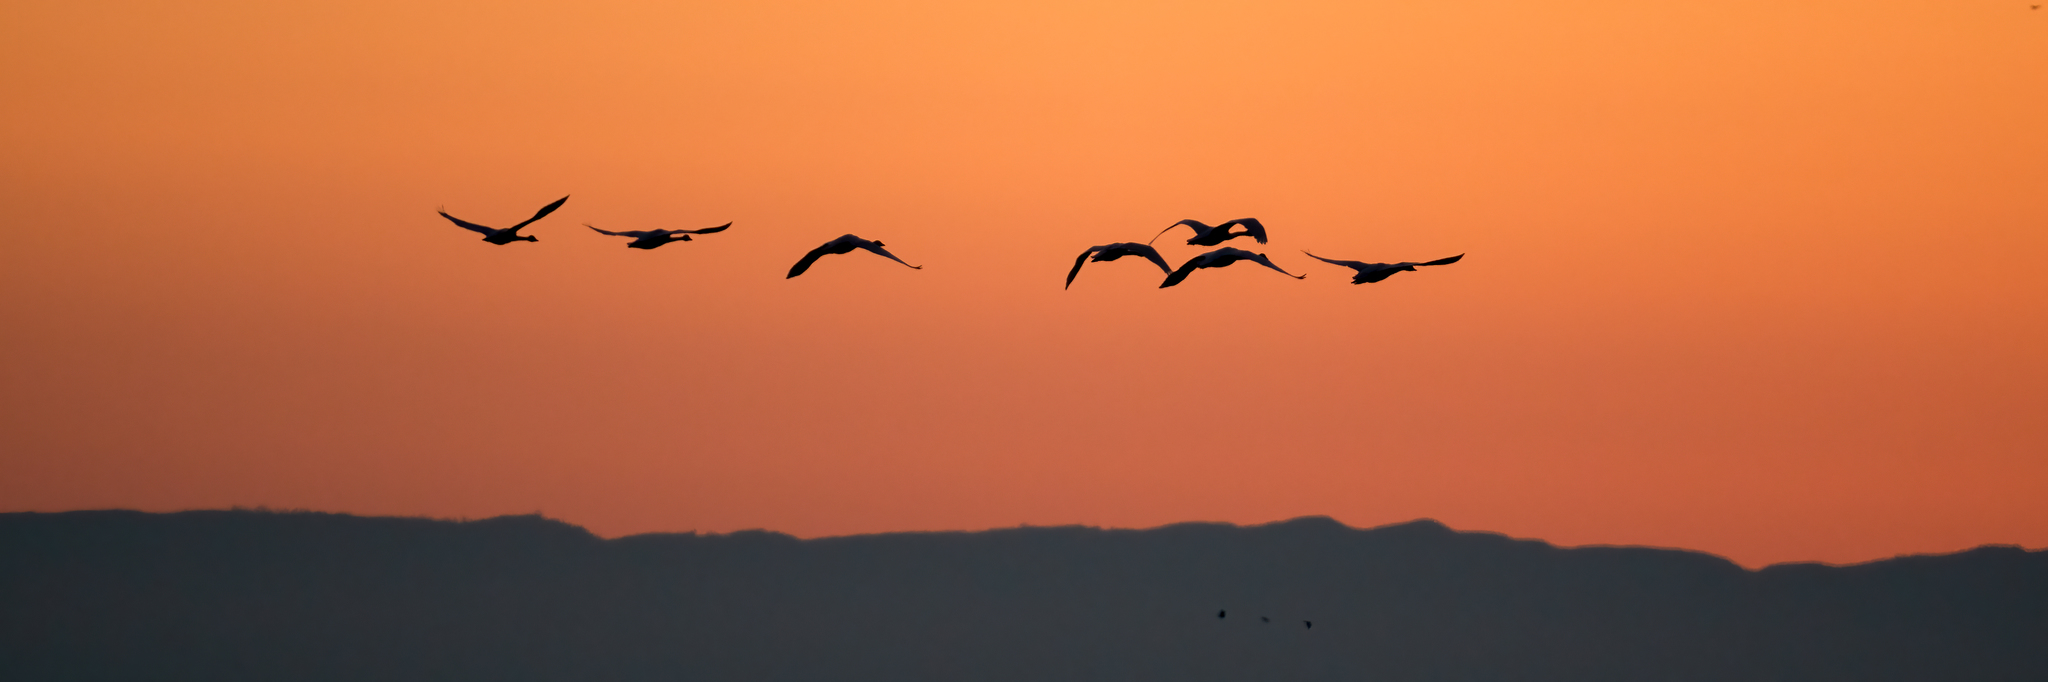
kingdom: Animalia
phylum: Chordata
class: Aves
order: Anseriformes
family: Anatidae
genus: Cygnus
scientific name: Cygnus columbianus
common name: Tundra swan
